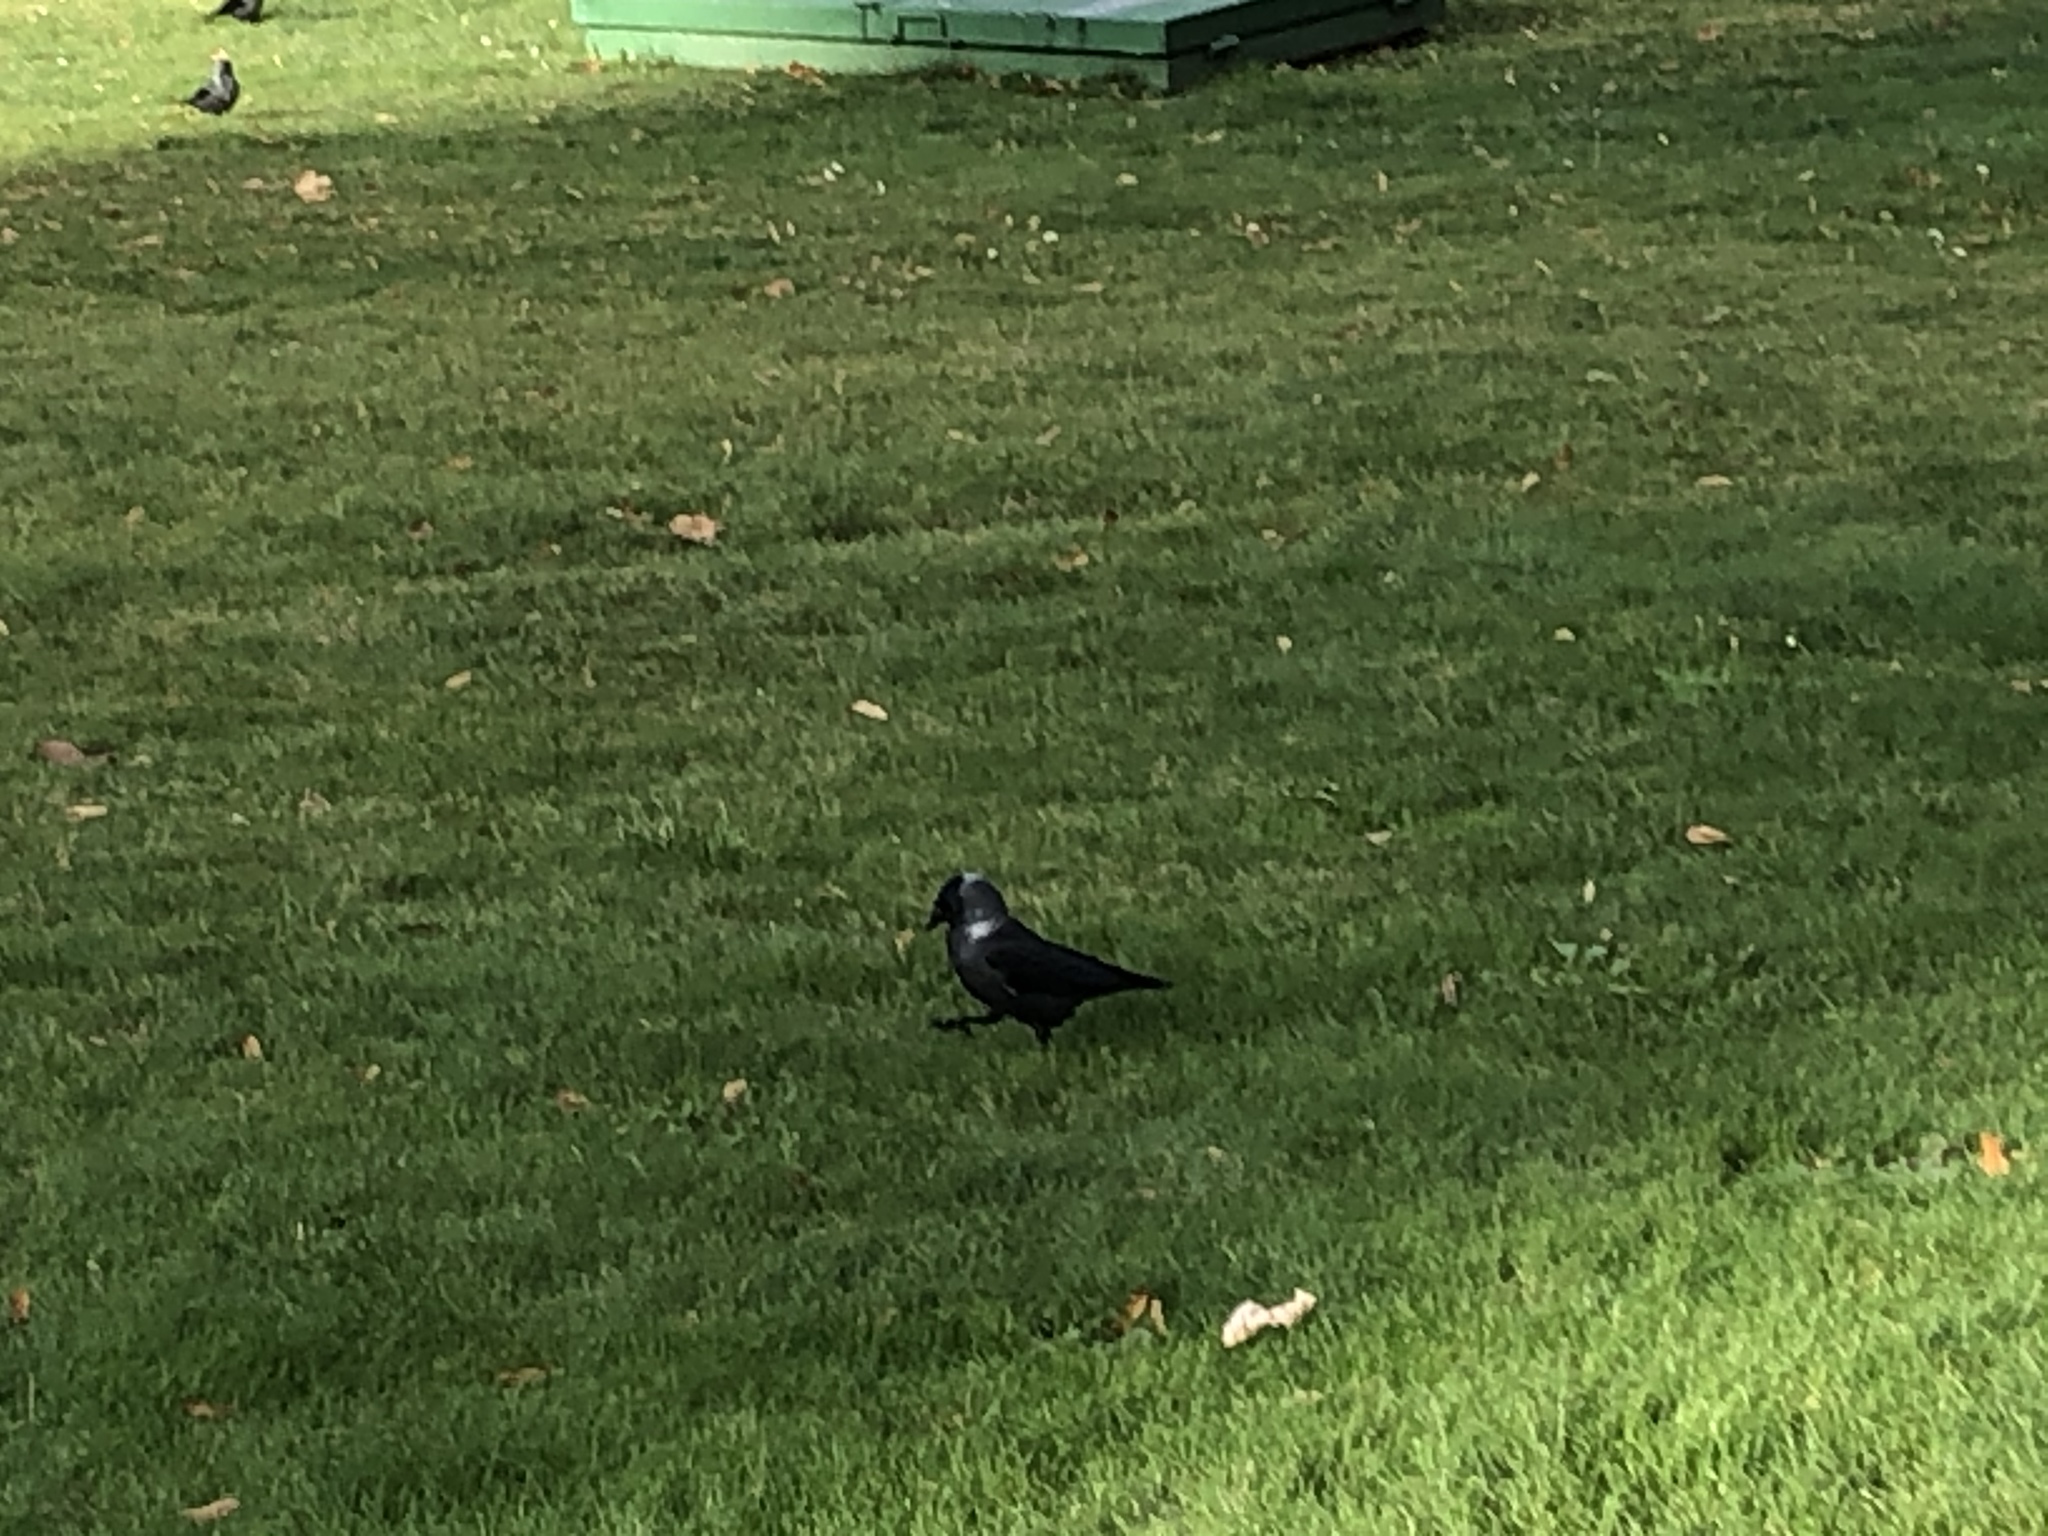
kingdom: Animalia
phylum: Chordata
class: Aves
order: Passeriformes
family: Corvidae
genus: Coloeus
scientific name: Coloeus monedula
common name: Western jackdaw
